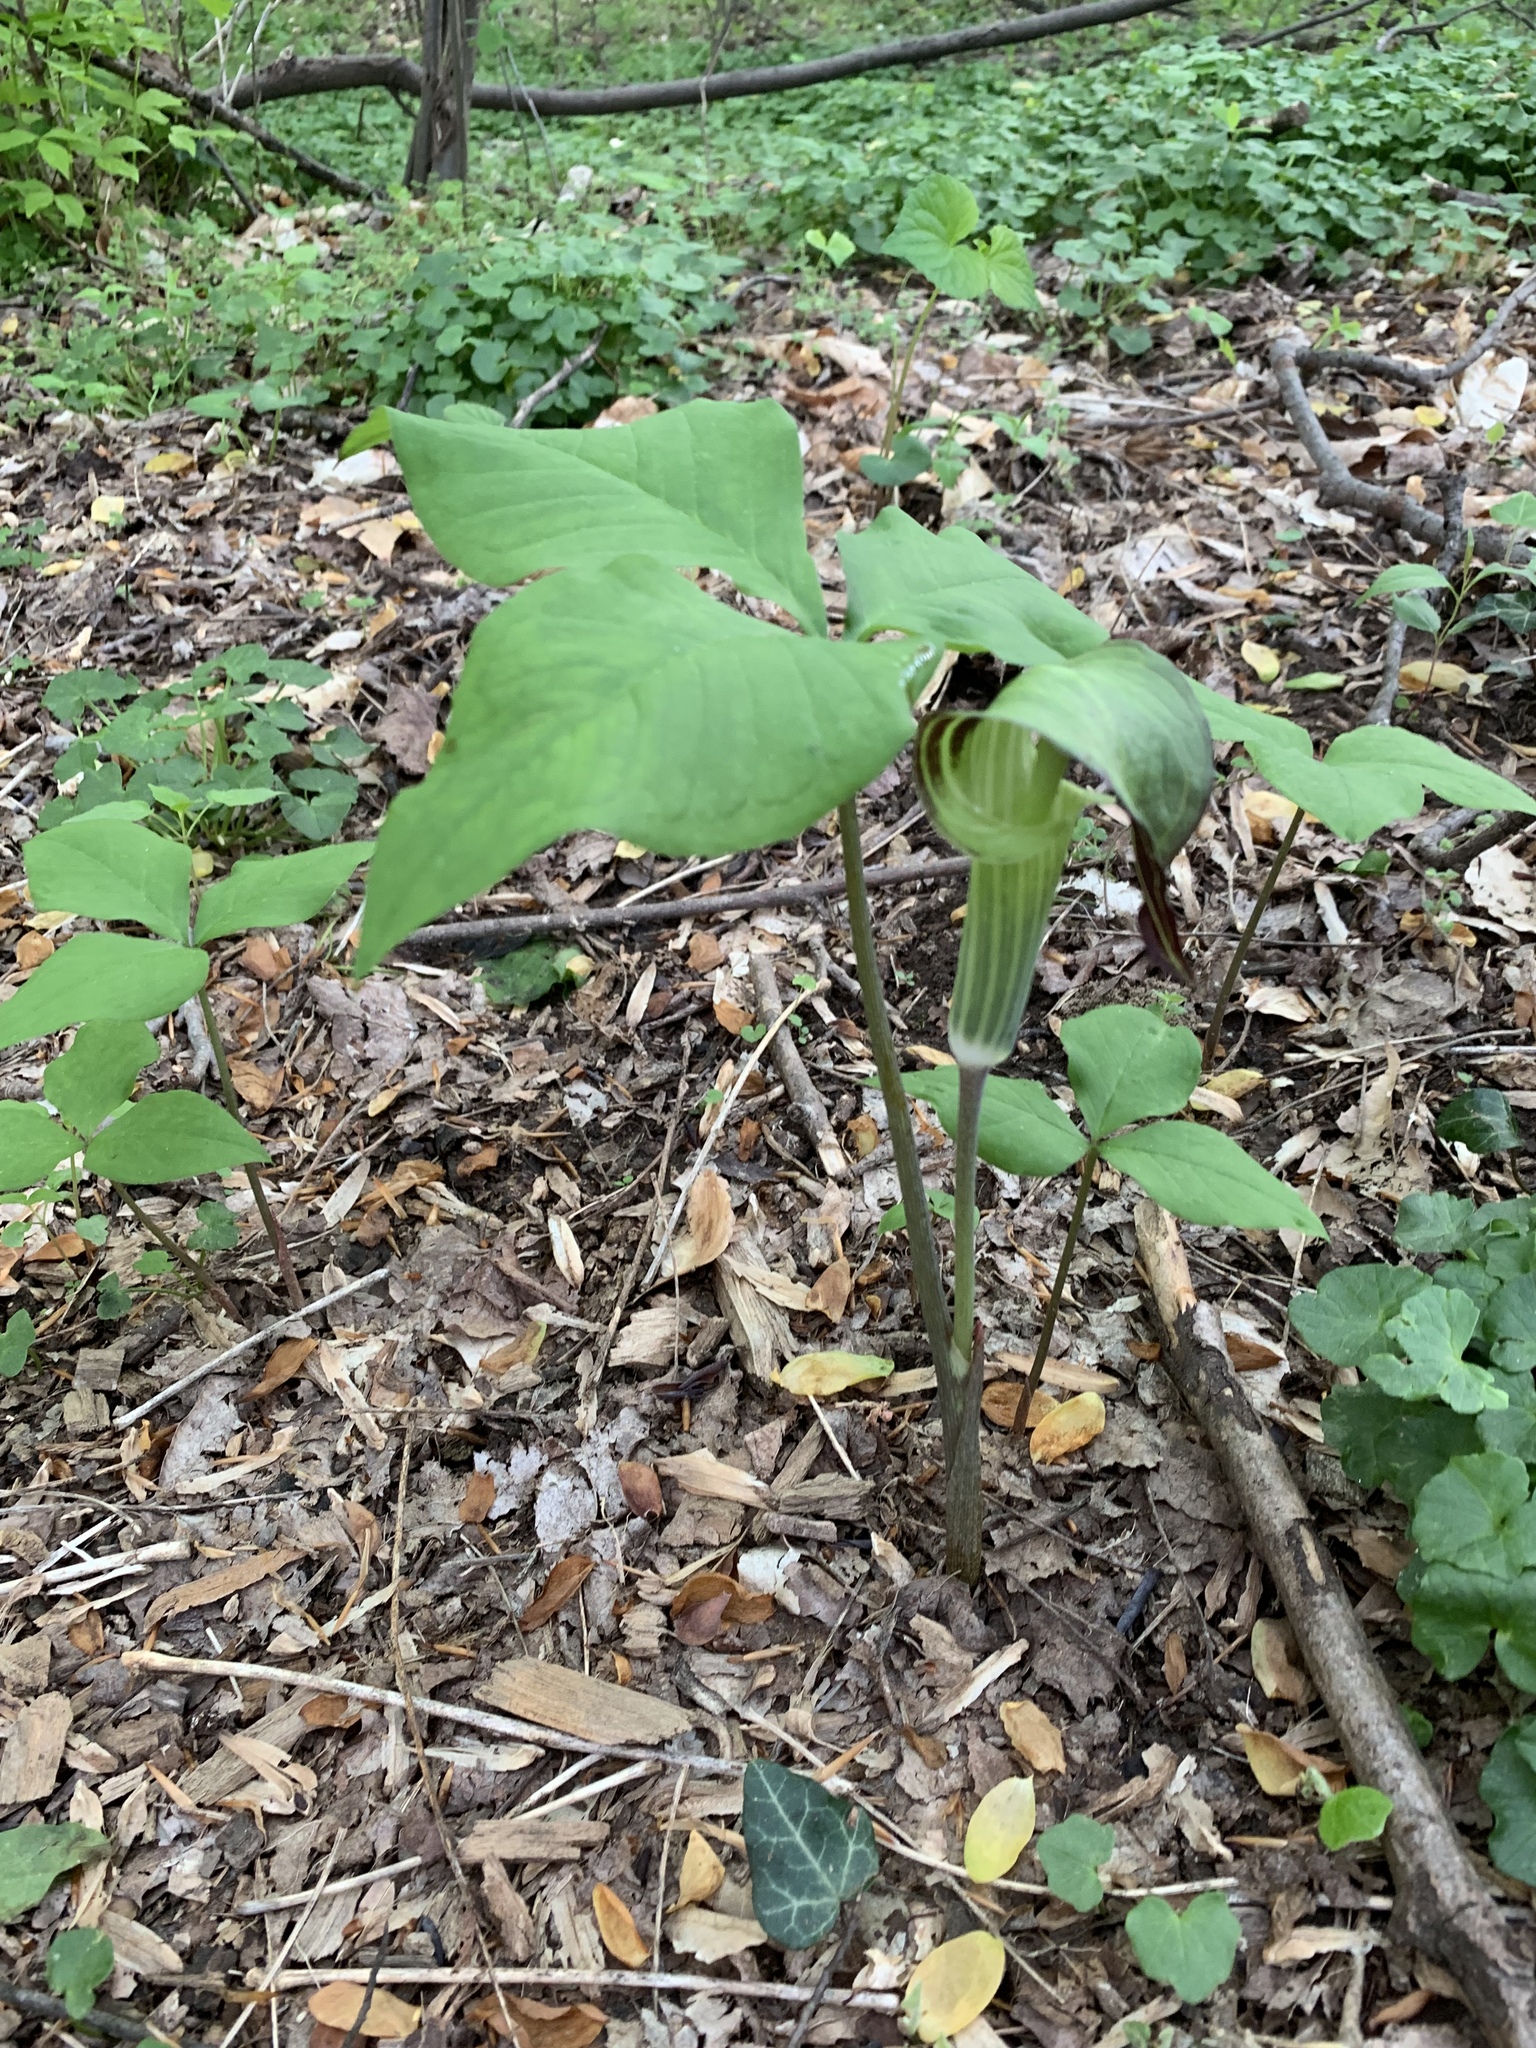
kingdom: Plantae
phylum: Tracheophyta
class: Liliopsida
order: Alismatales
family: Araceae
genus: Arisaema
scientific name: Arisaema triphyllum
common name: Jack-in-the-pulpit
